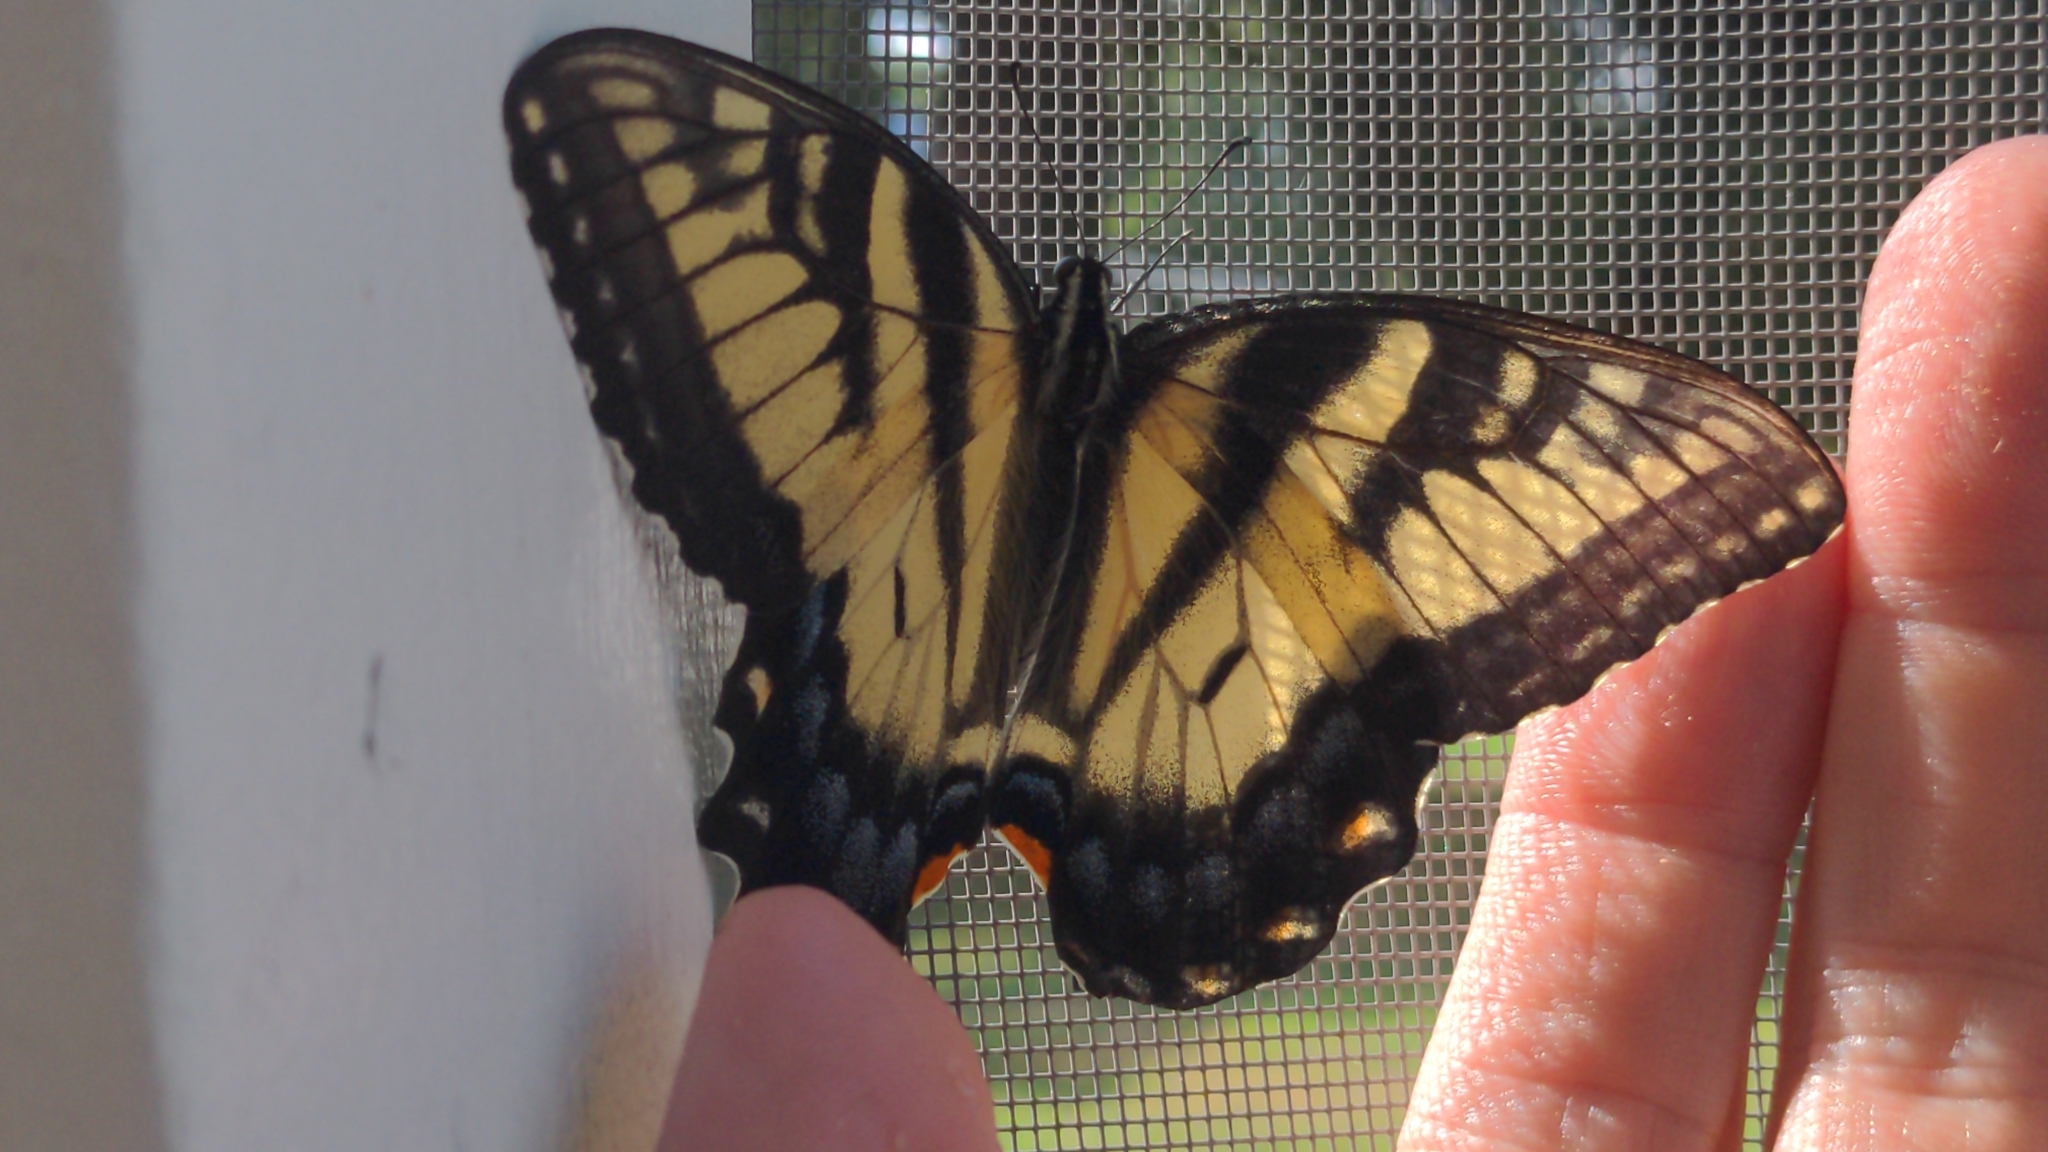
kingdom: Animalia
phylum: Arthropoda
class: Insecta
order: Lepidoptera
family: Papilionidae
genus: Papilio
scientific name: Papilio glaucus
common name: Tiger swallowtail
